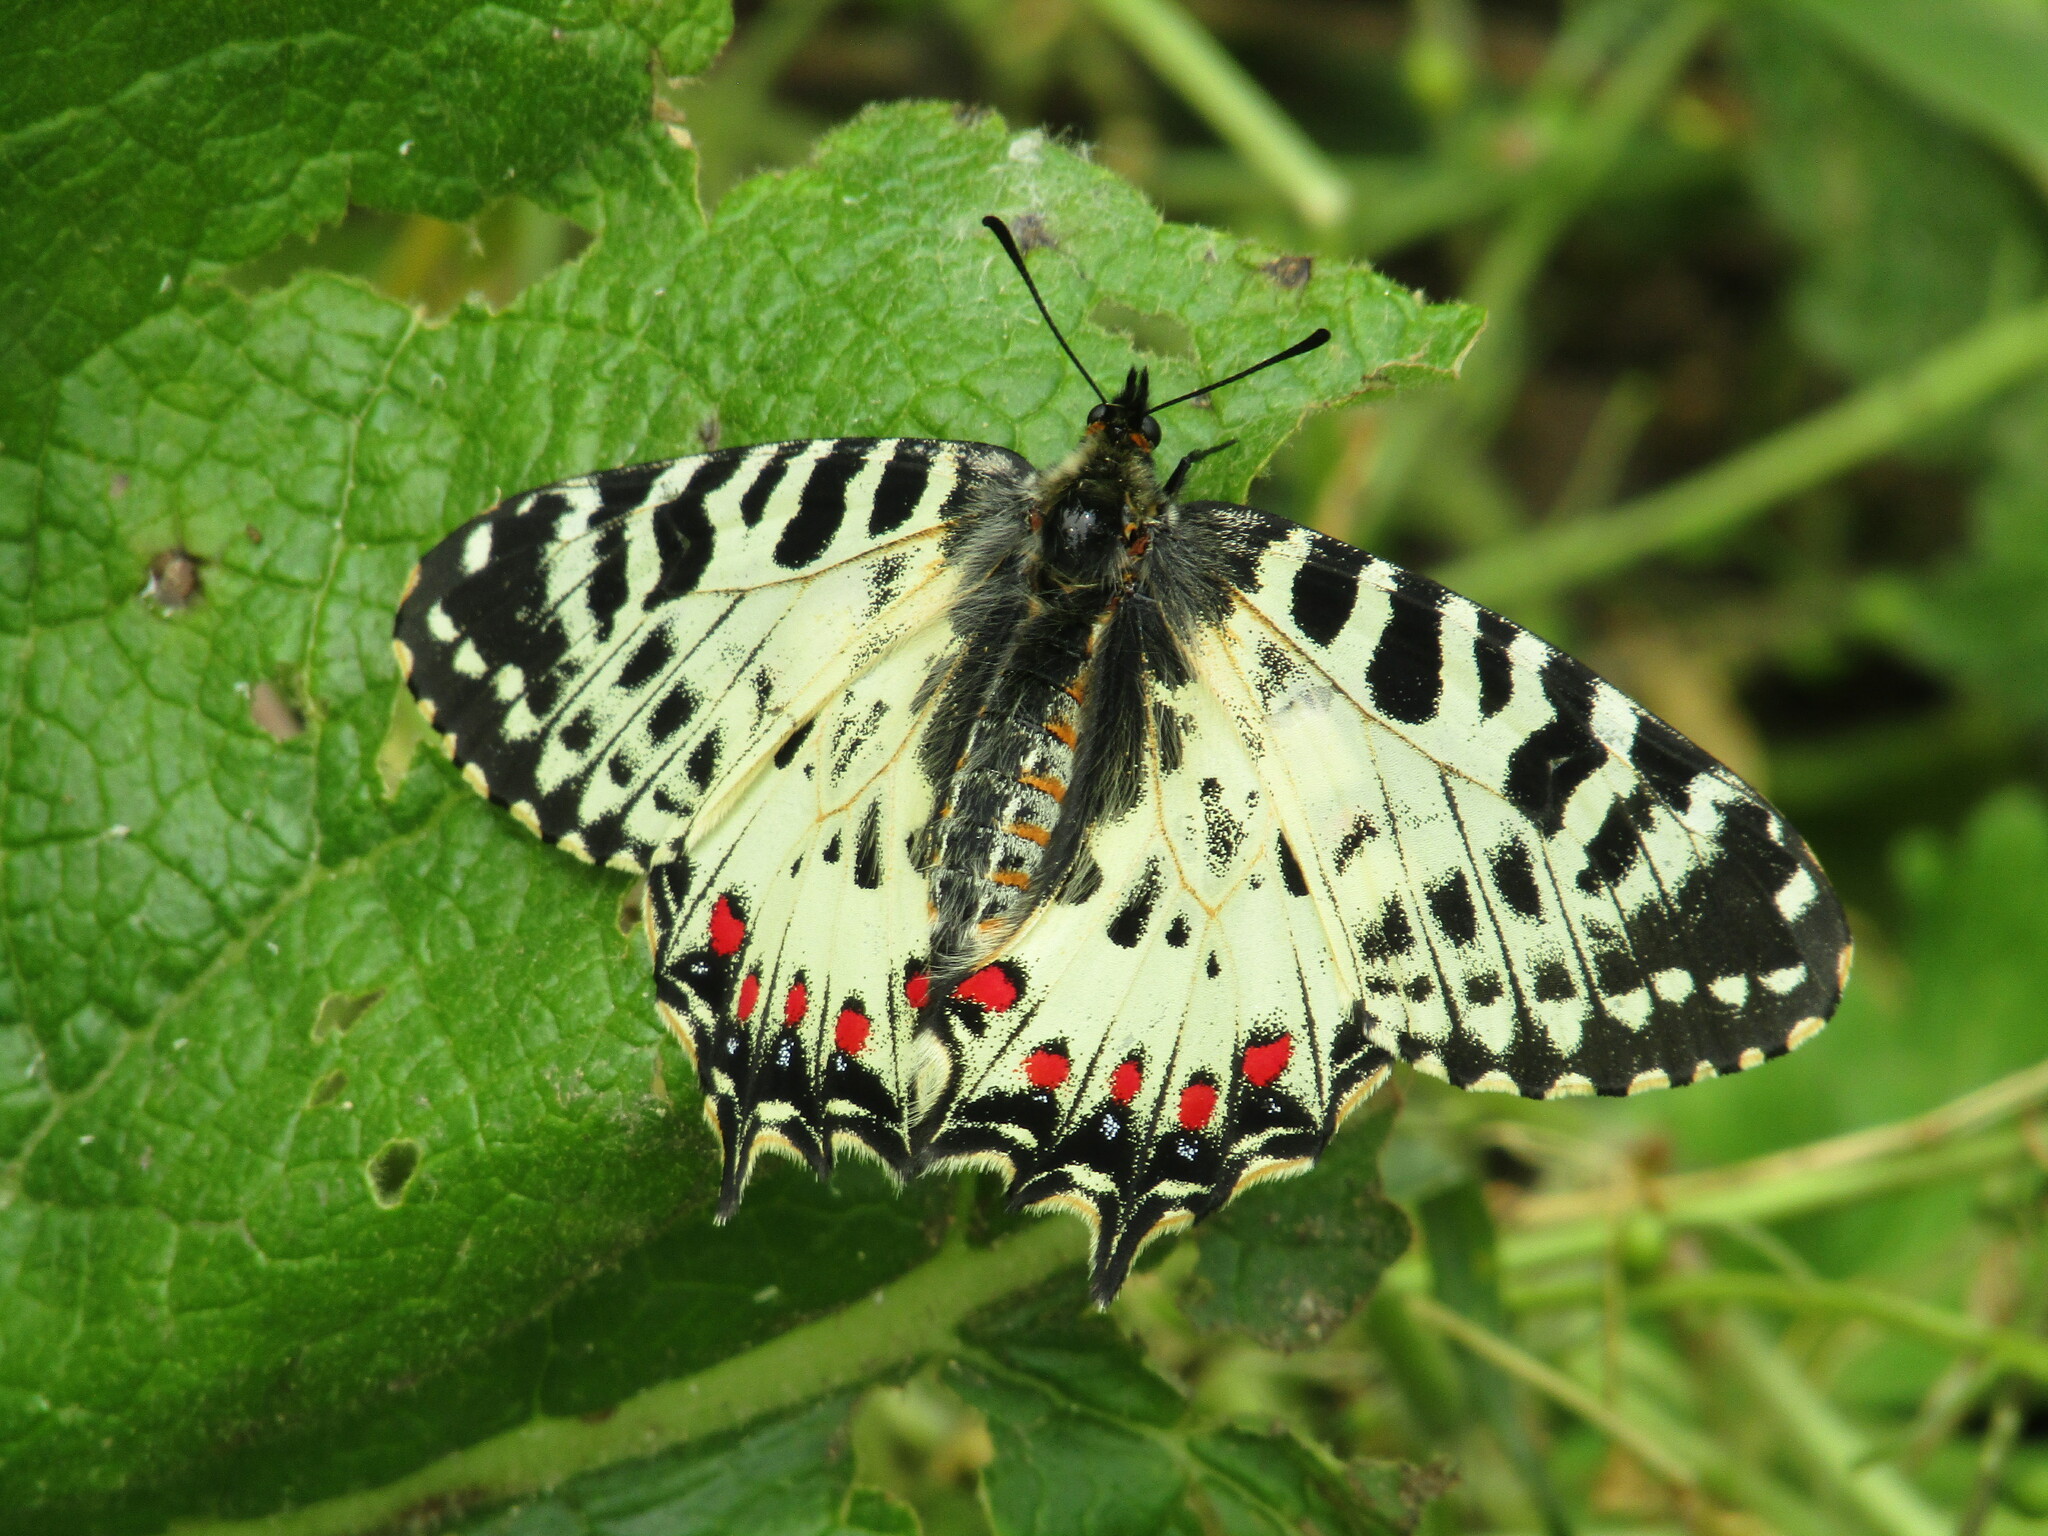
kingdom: Animalia
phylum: Arthropoda
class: Insecta
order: Lepidoptera
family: Papilionidae
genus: Zerynthia
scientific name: Zerynthia cerisy
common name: Eastern festoon
